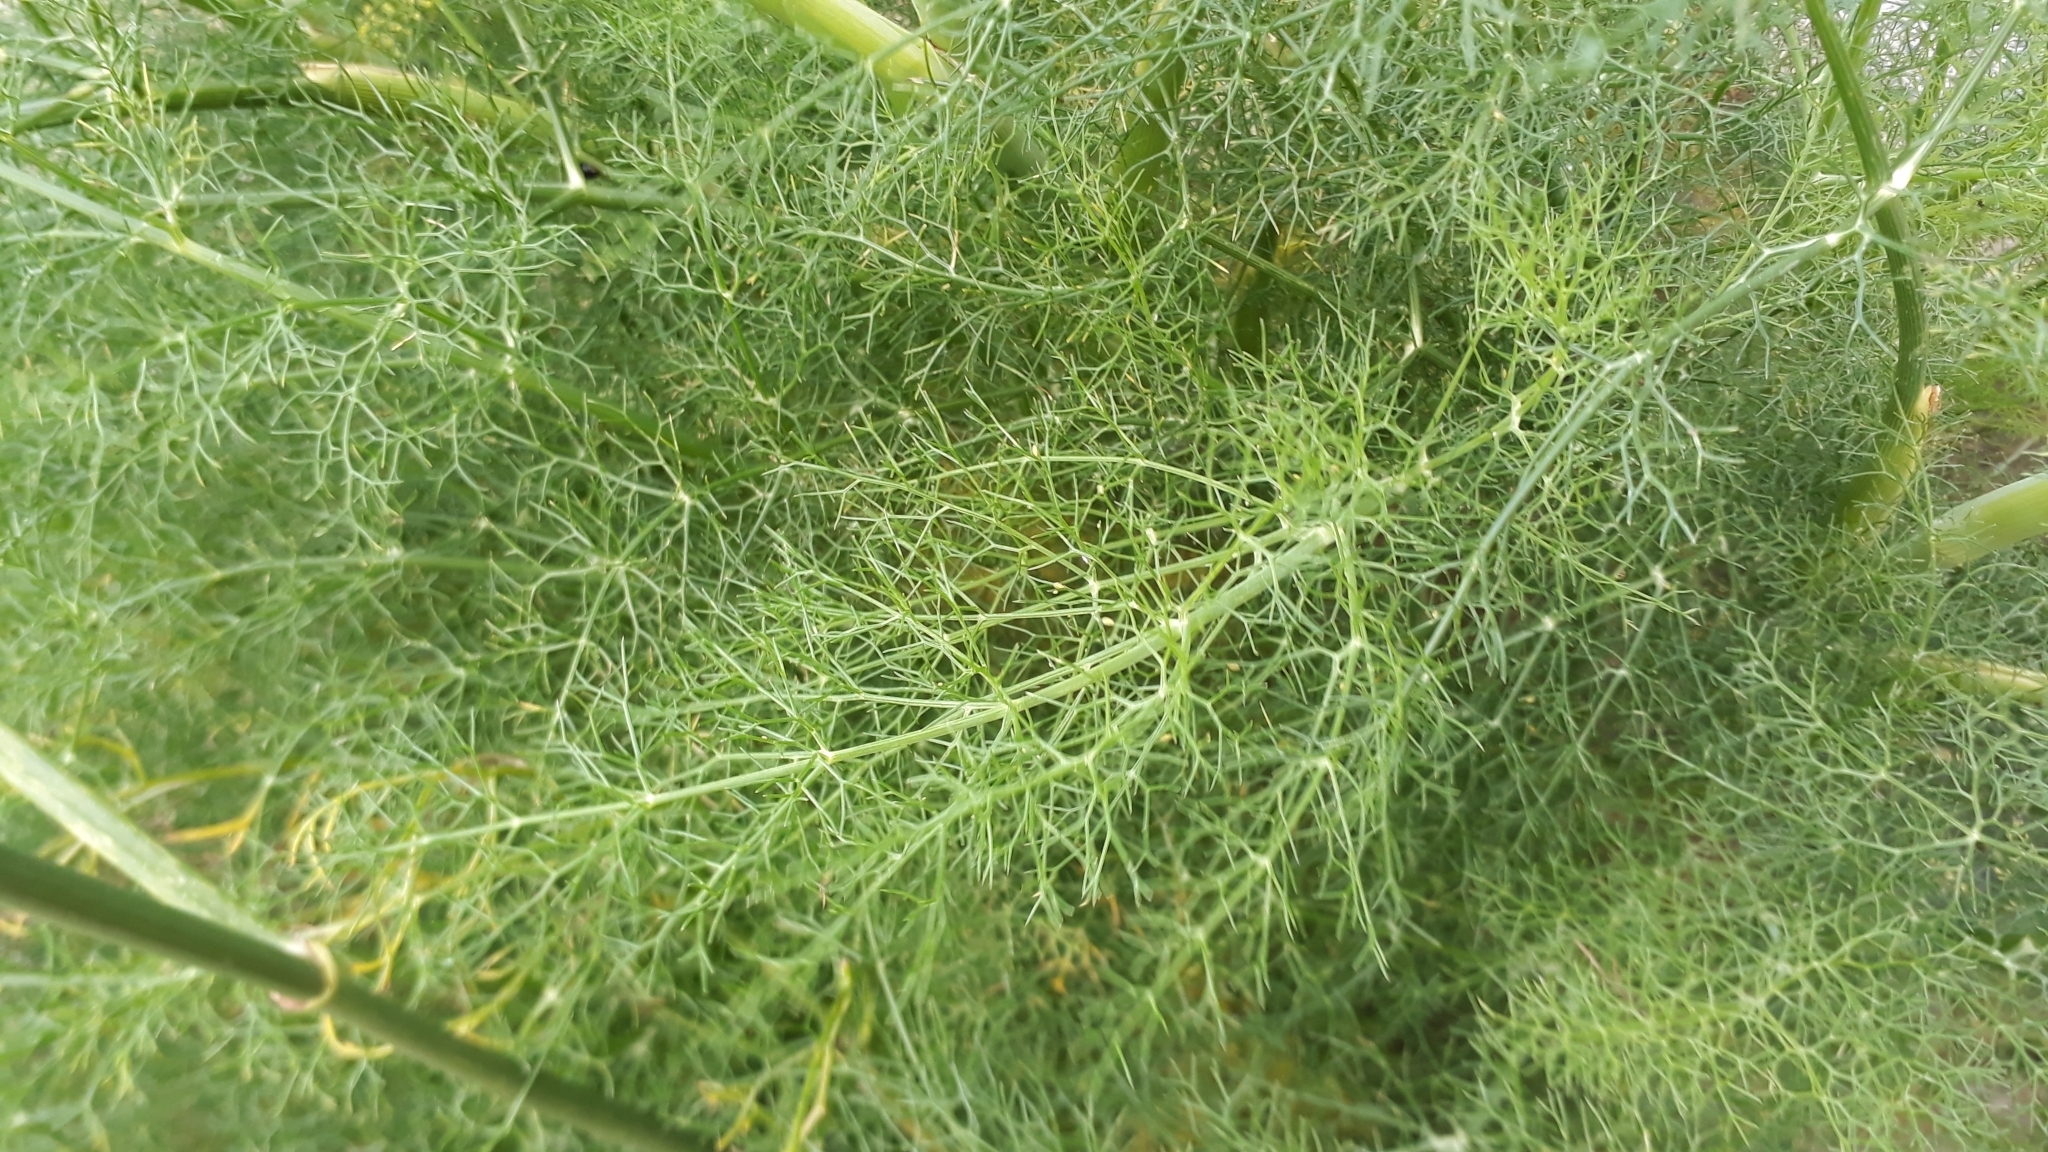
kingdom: Plantae
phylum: Tracheophyta
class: Magnoliopsida
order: Apiales
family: Apiaceae
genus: Foeniculum
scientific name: Foeniculum vulgare
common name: Fennel
